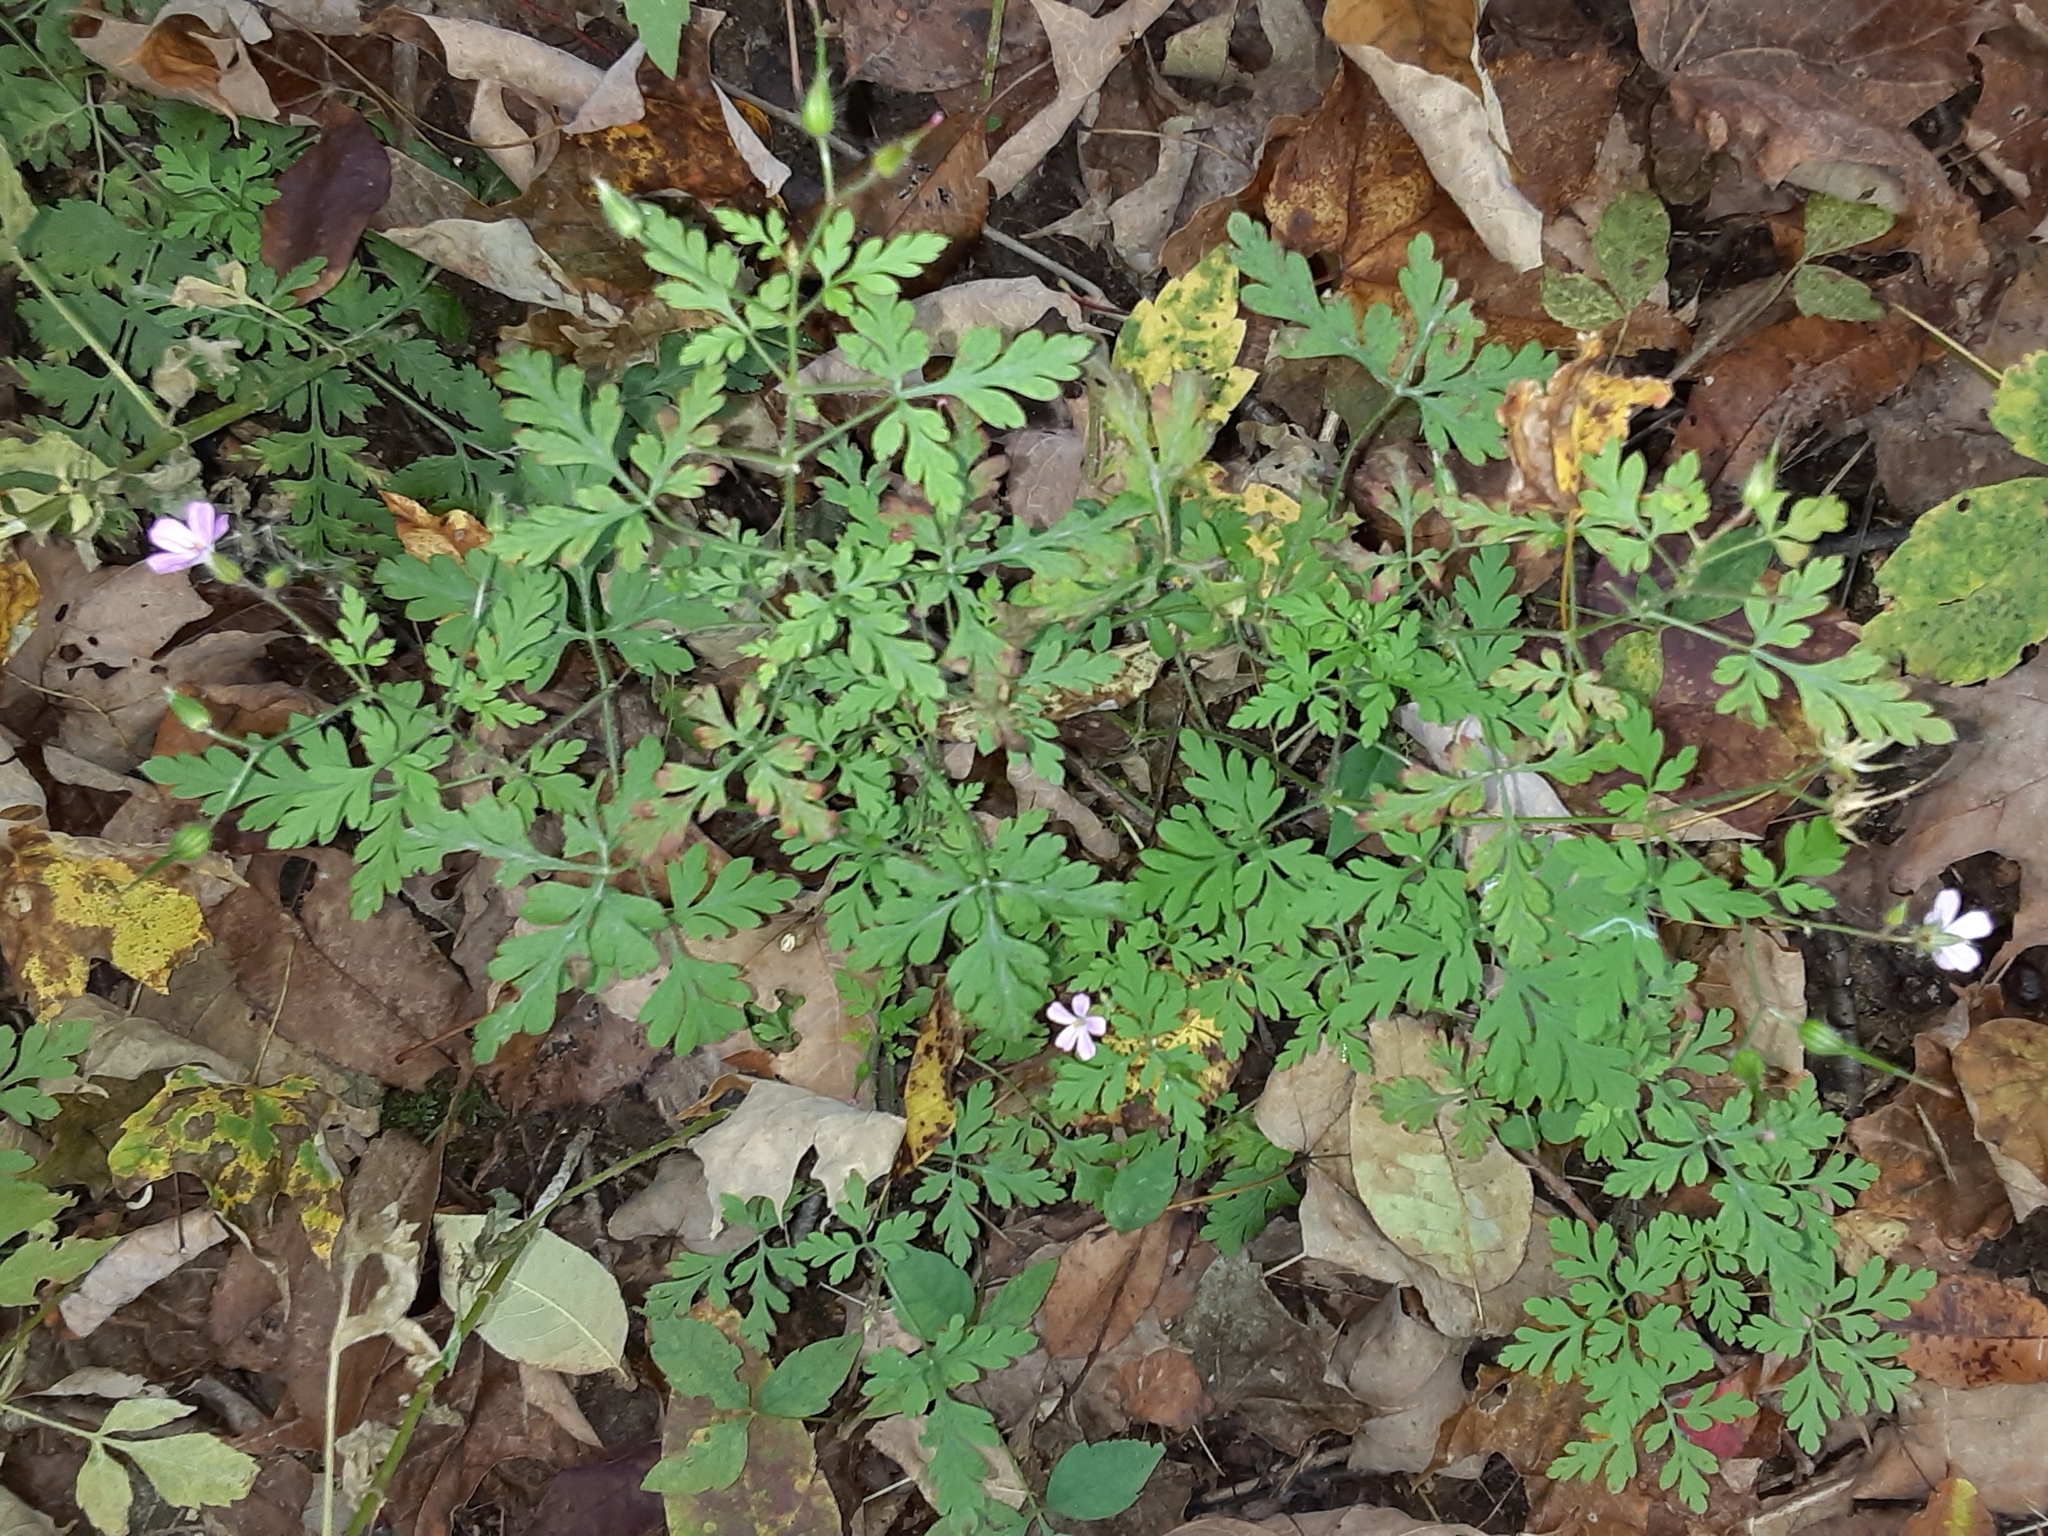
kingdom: Plantae
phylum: Tracheophyta
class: Magnoliopsida
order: Geraniales
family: Geraniaceae
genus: Geranium
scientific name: Geranium robertianum
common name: Herb-robert
